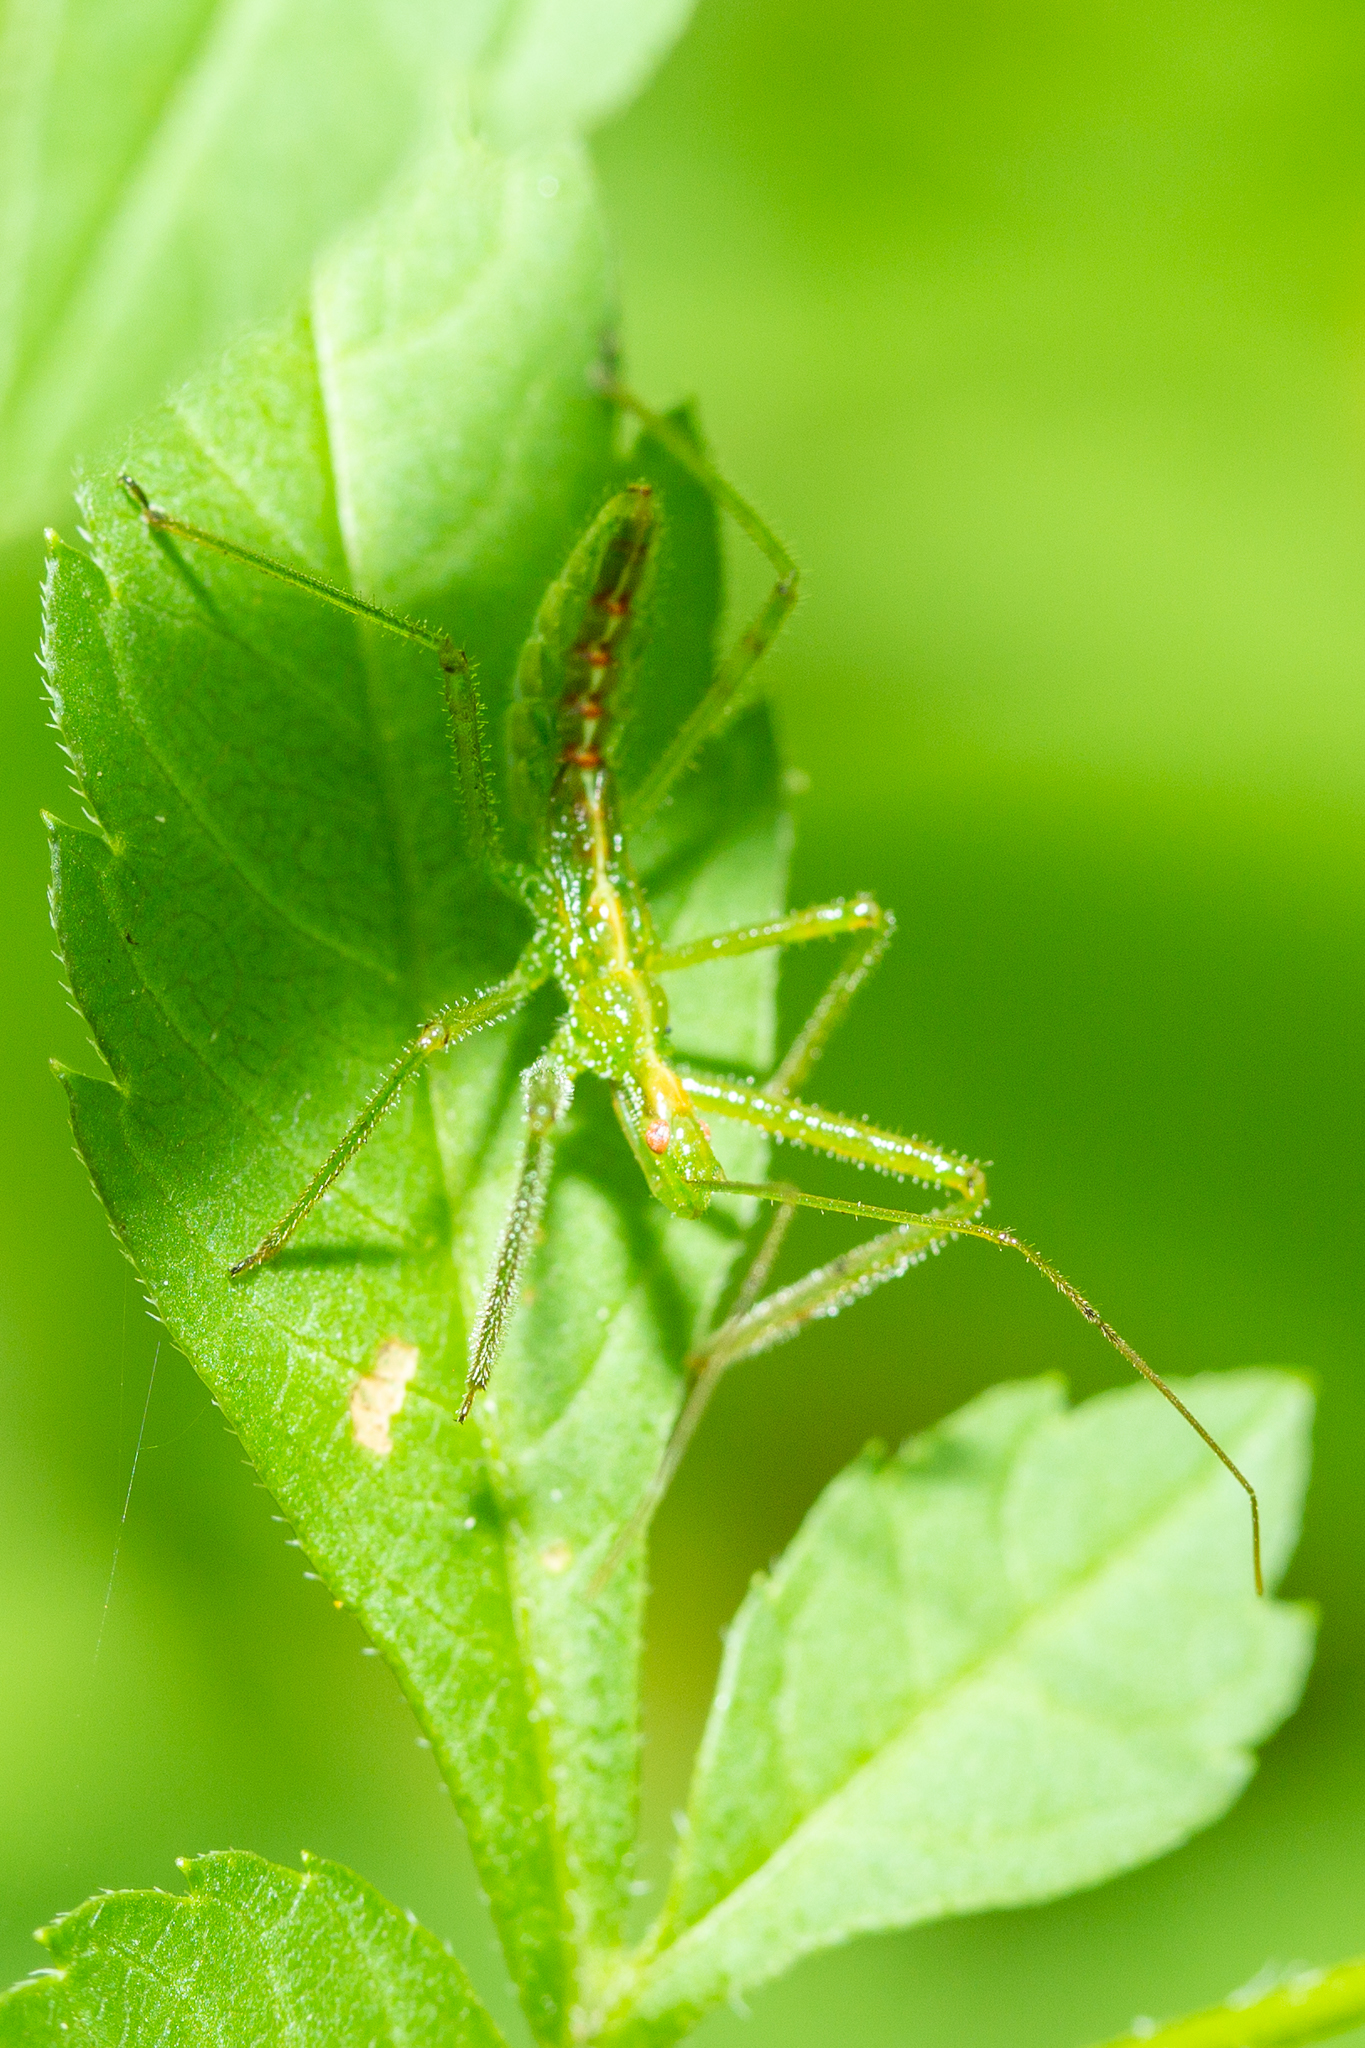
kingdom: Animalia
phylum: Arthropoda
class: Insecta
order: Hemiptera
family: Reduviidae
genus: Zelus
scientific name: Zelus luridus
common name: Pale green assassin bug
